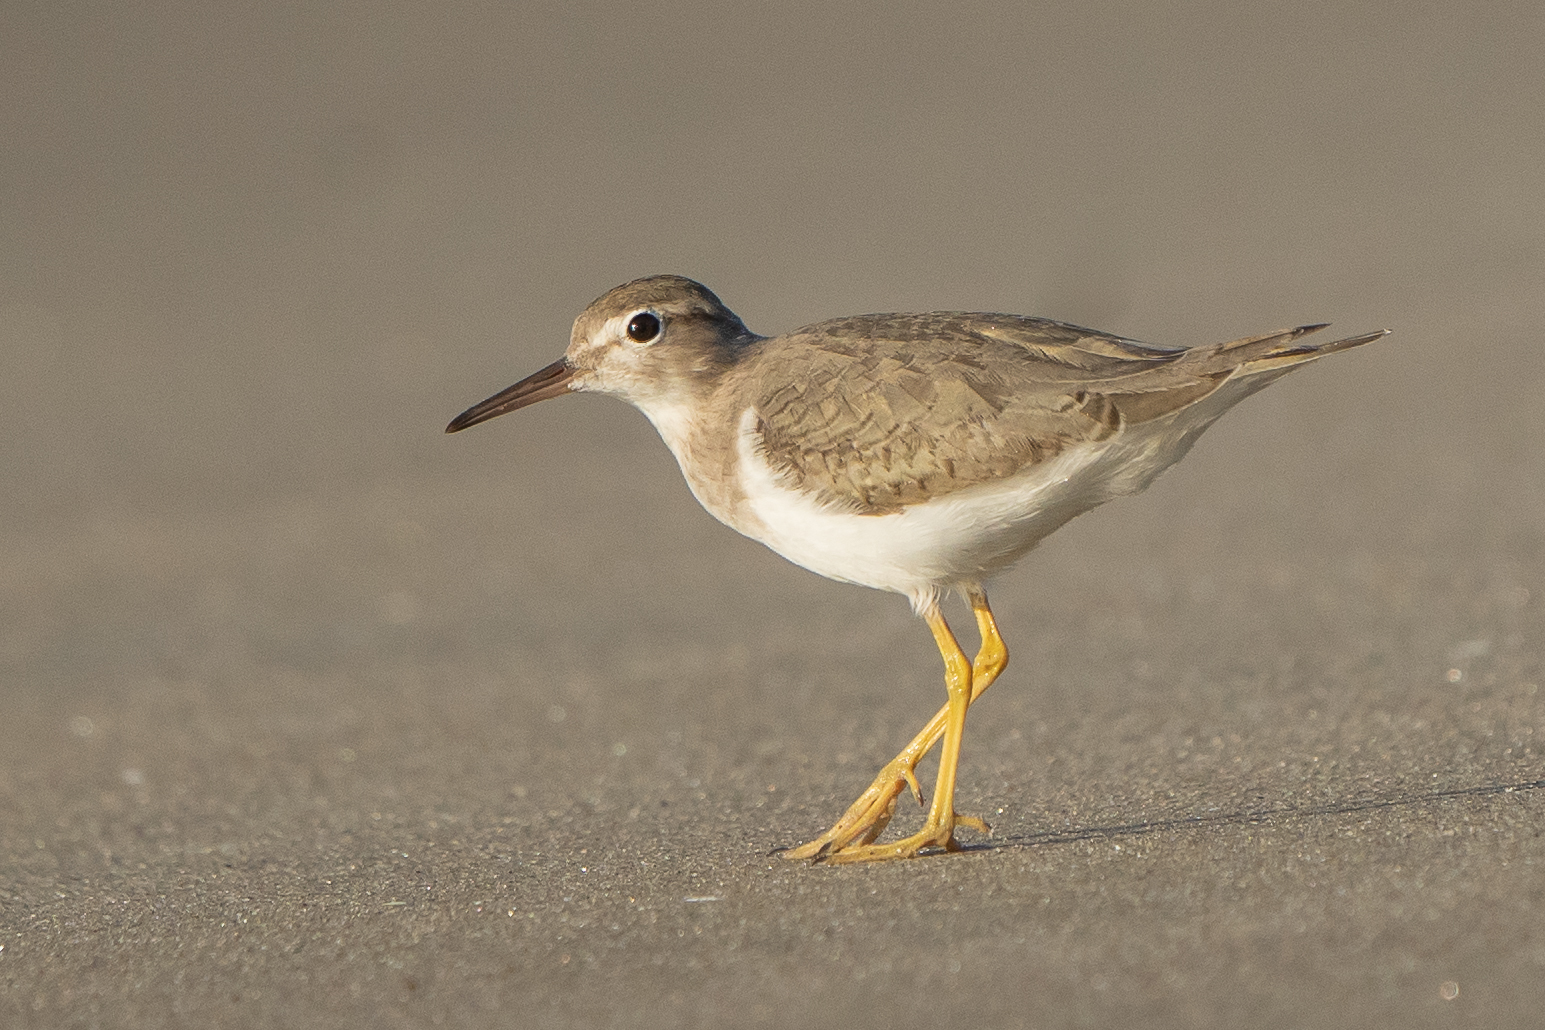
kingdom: Animalia
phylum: Chordata
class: Aves
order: Charadriiformes
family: Scolopacidae
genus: Actitis
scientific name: Actitis macularius
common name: Spotted sandpiper
